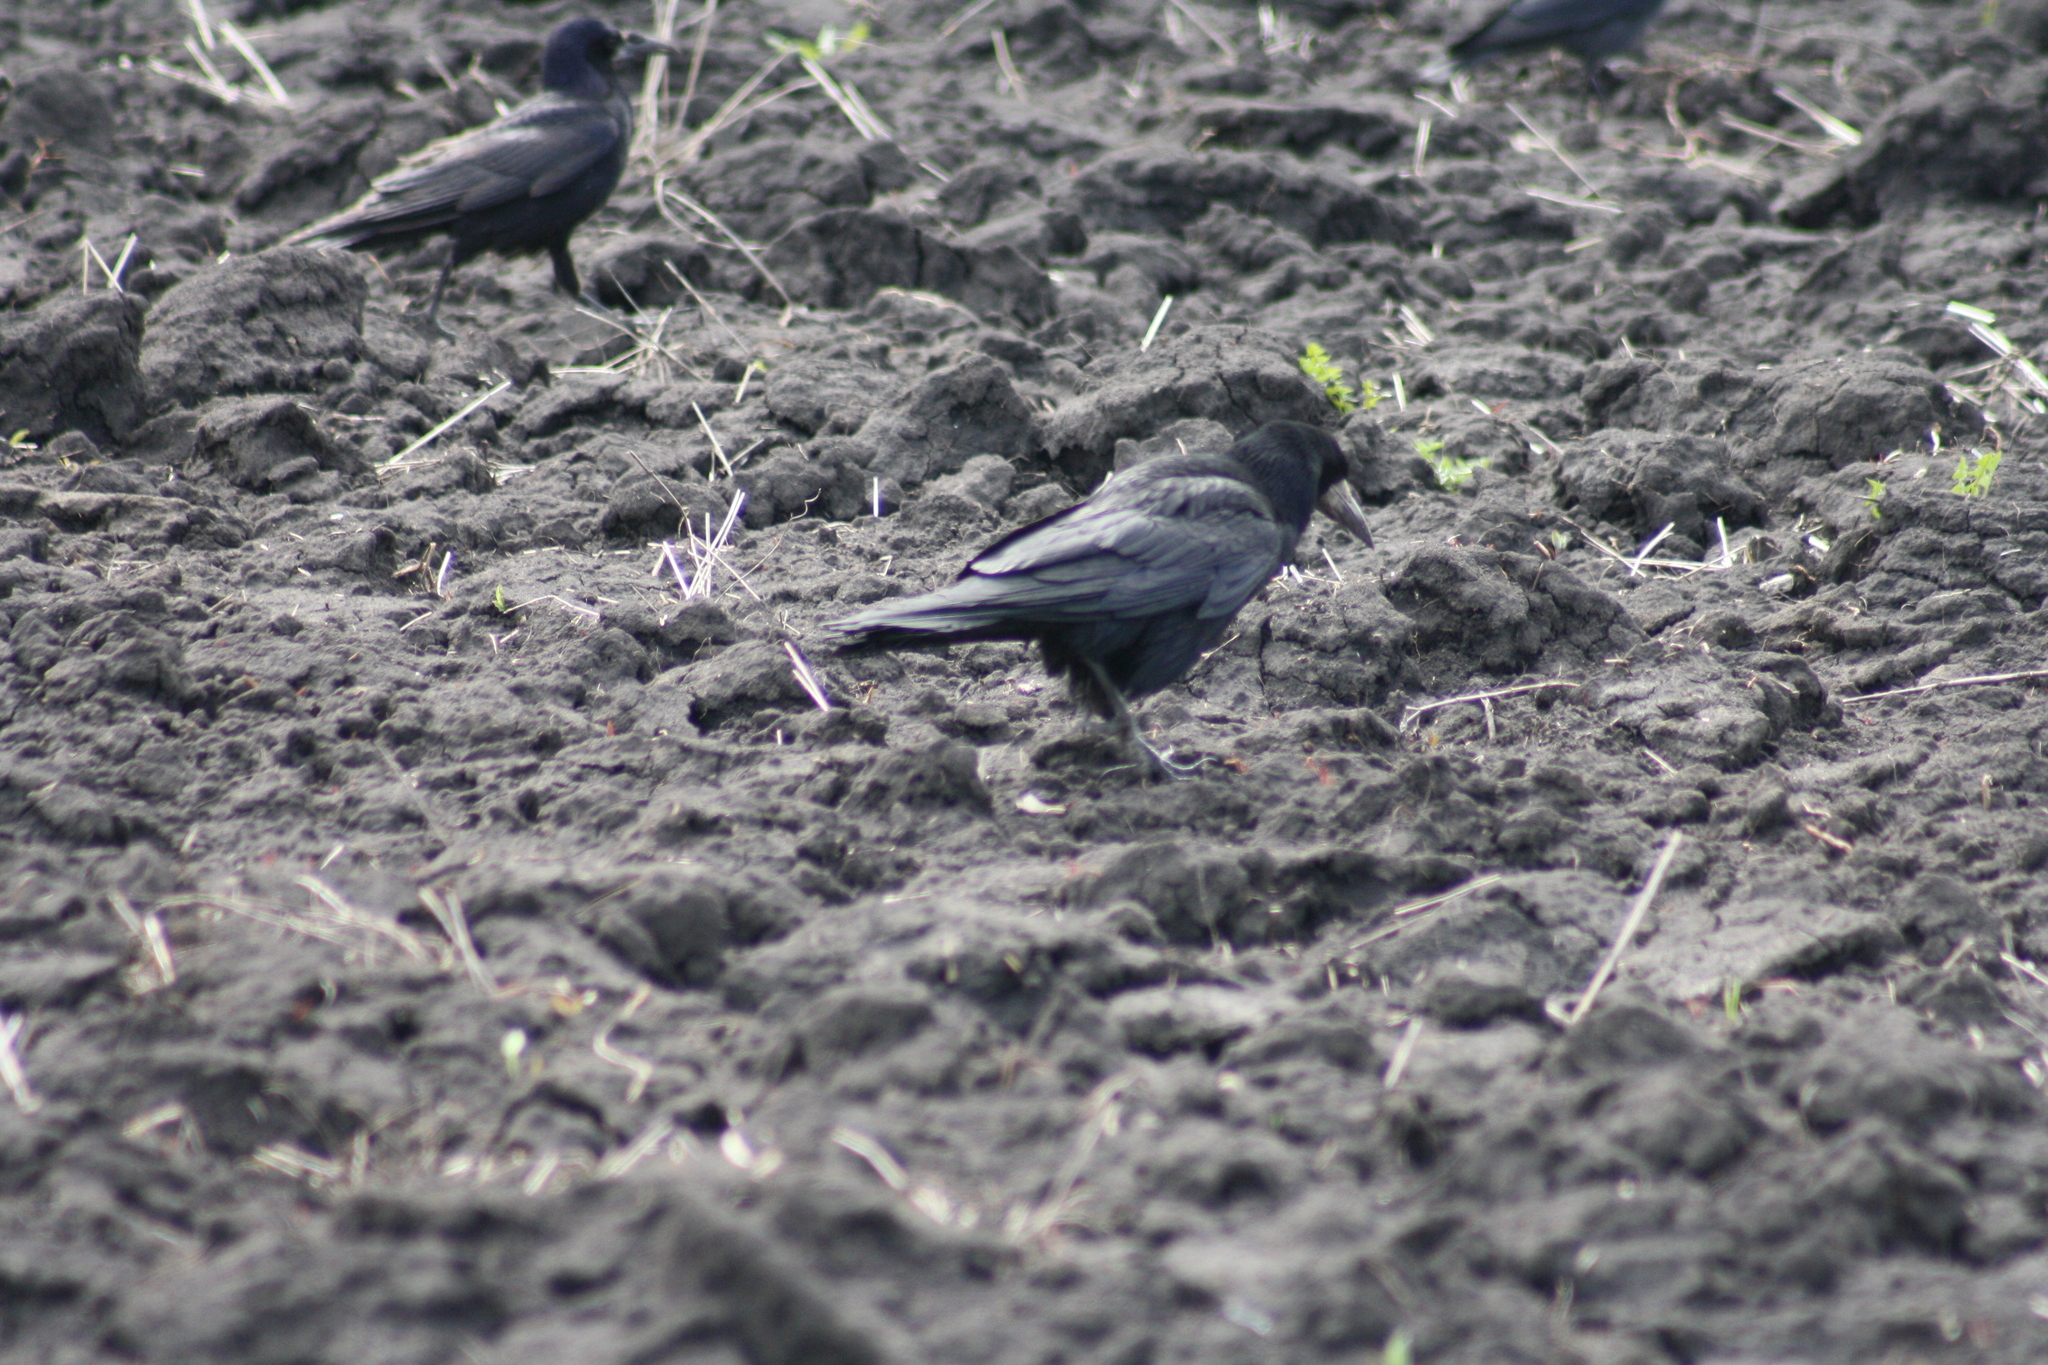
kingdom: Animalia
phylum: Chordata
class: Aves
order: Passeriformes
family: Corvidae
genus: Corvus
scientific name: Corvus frugilegus
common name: Rook
